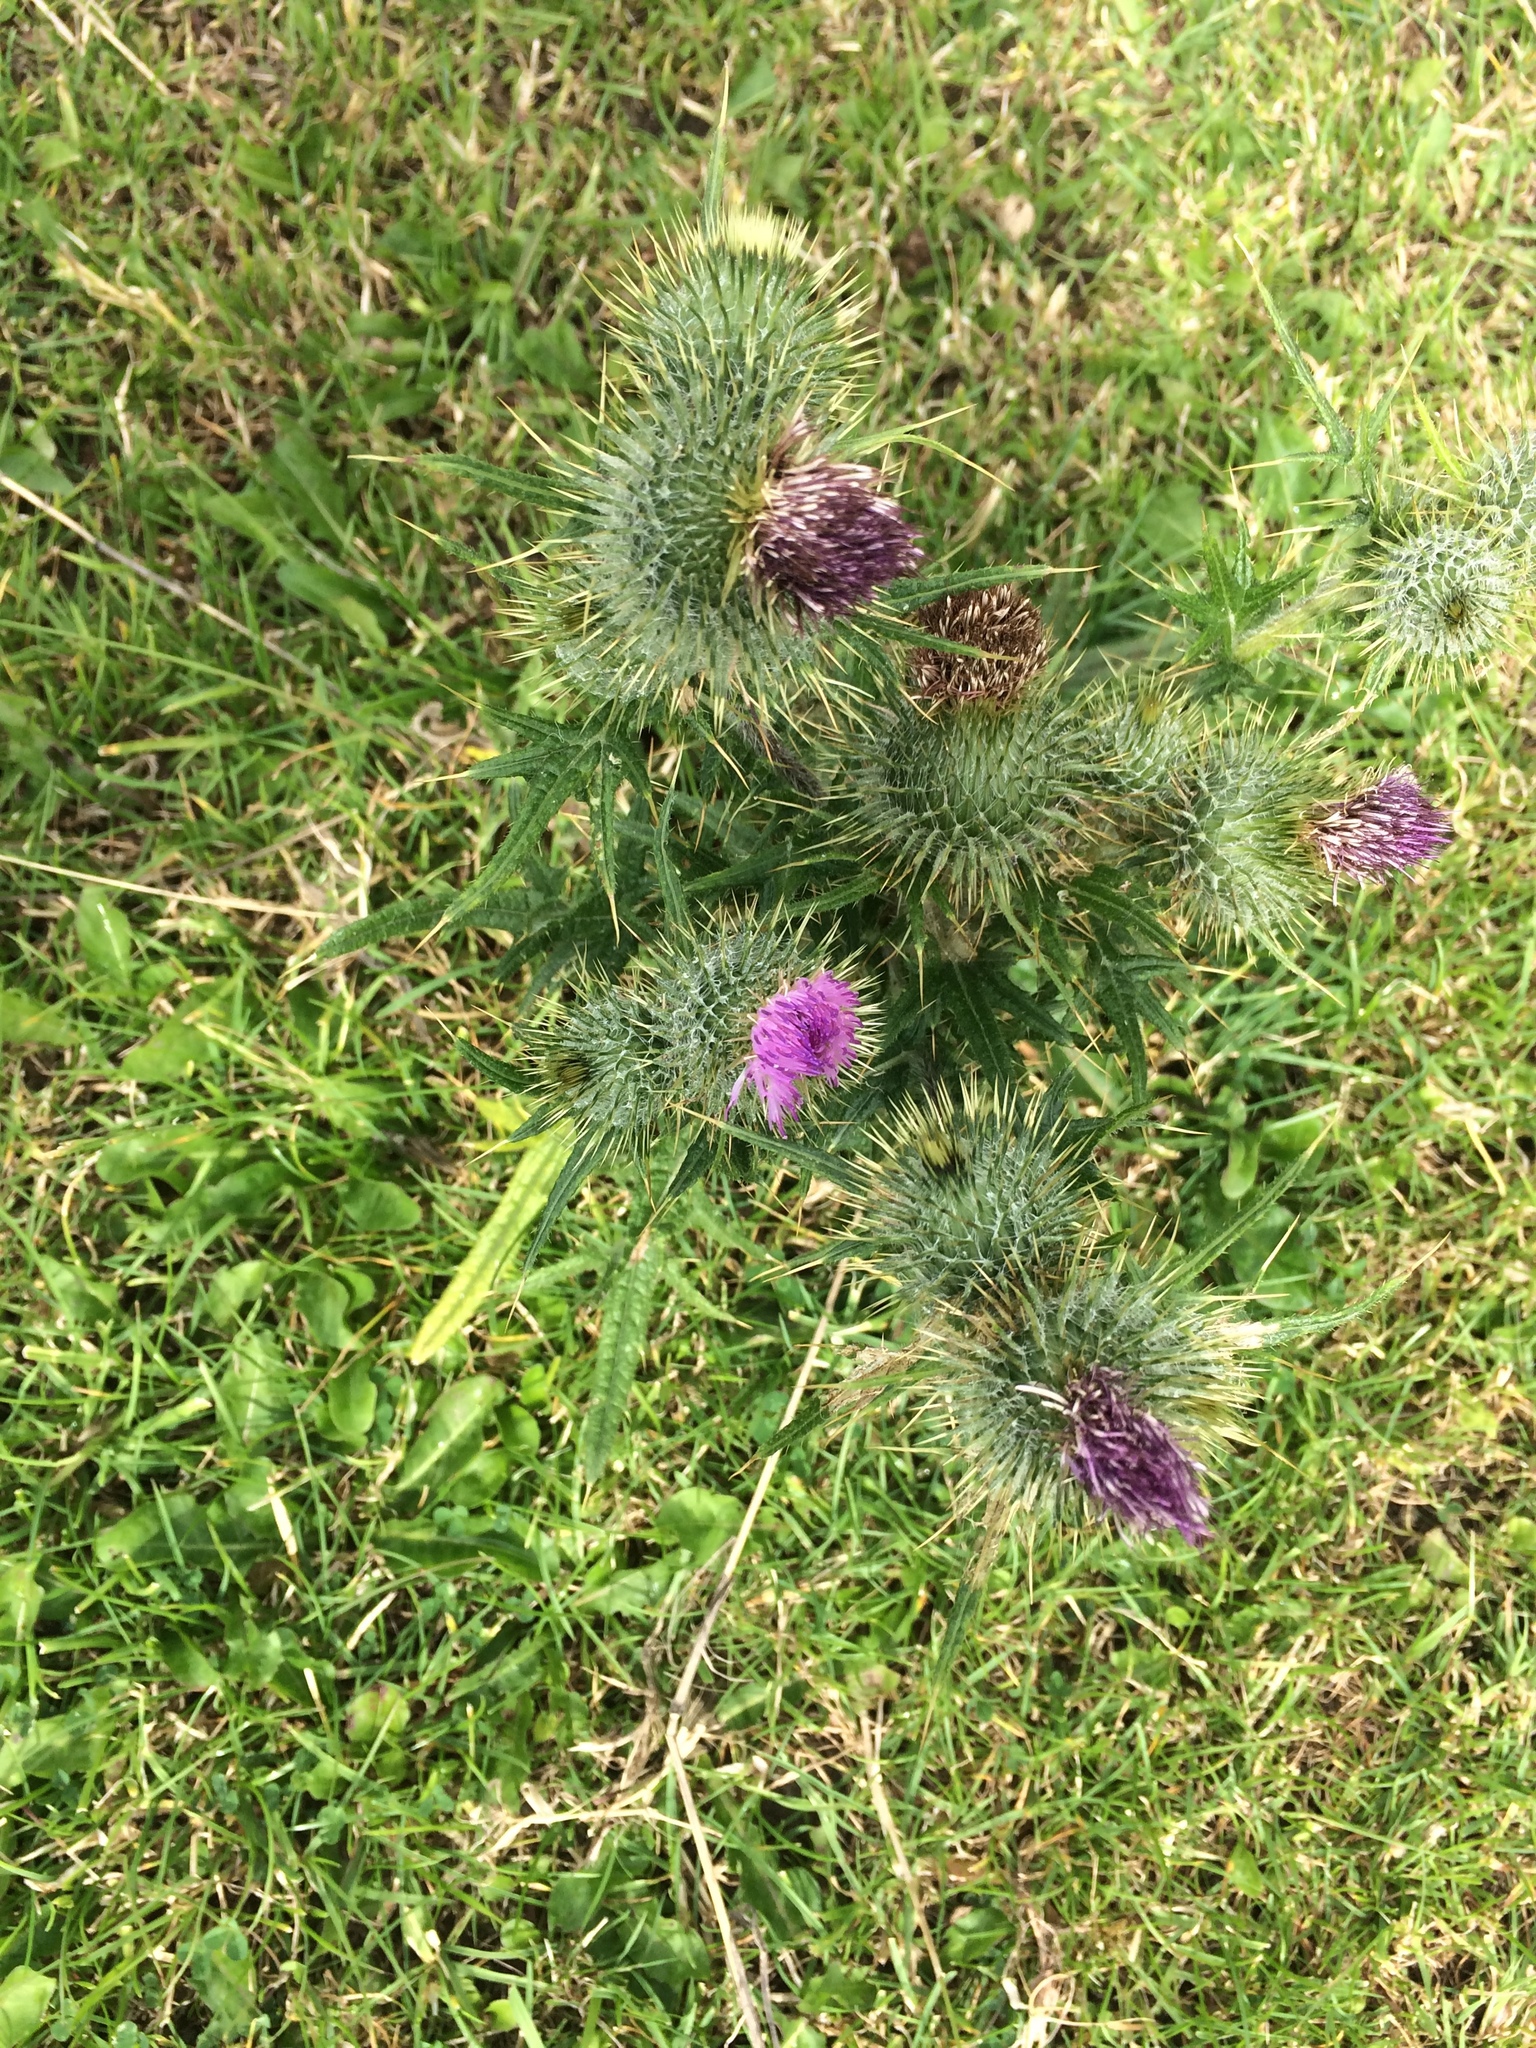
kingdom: Plantae
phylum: Tracheophyta
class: Magnoliopsida
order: Asterales
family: Asteraceae
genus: Cirsium
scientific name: Cirsium vulgare
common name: Bull thistle
